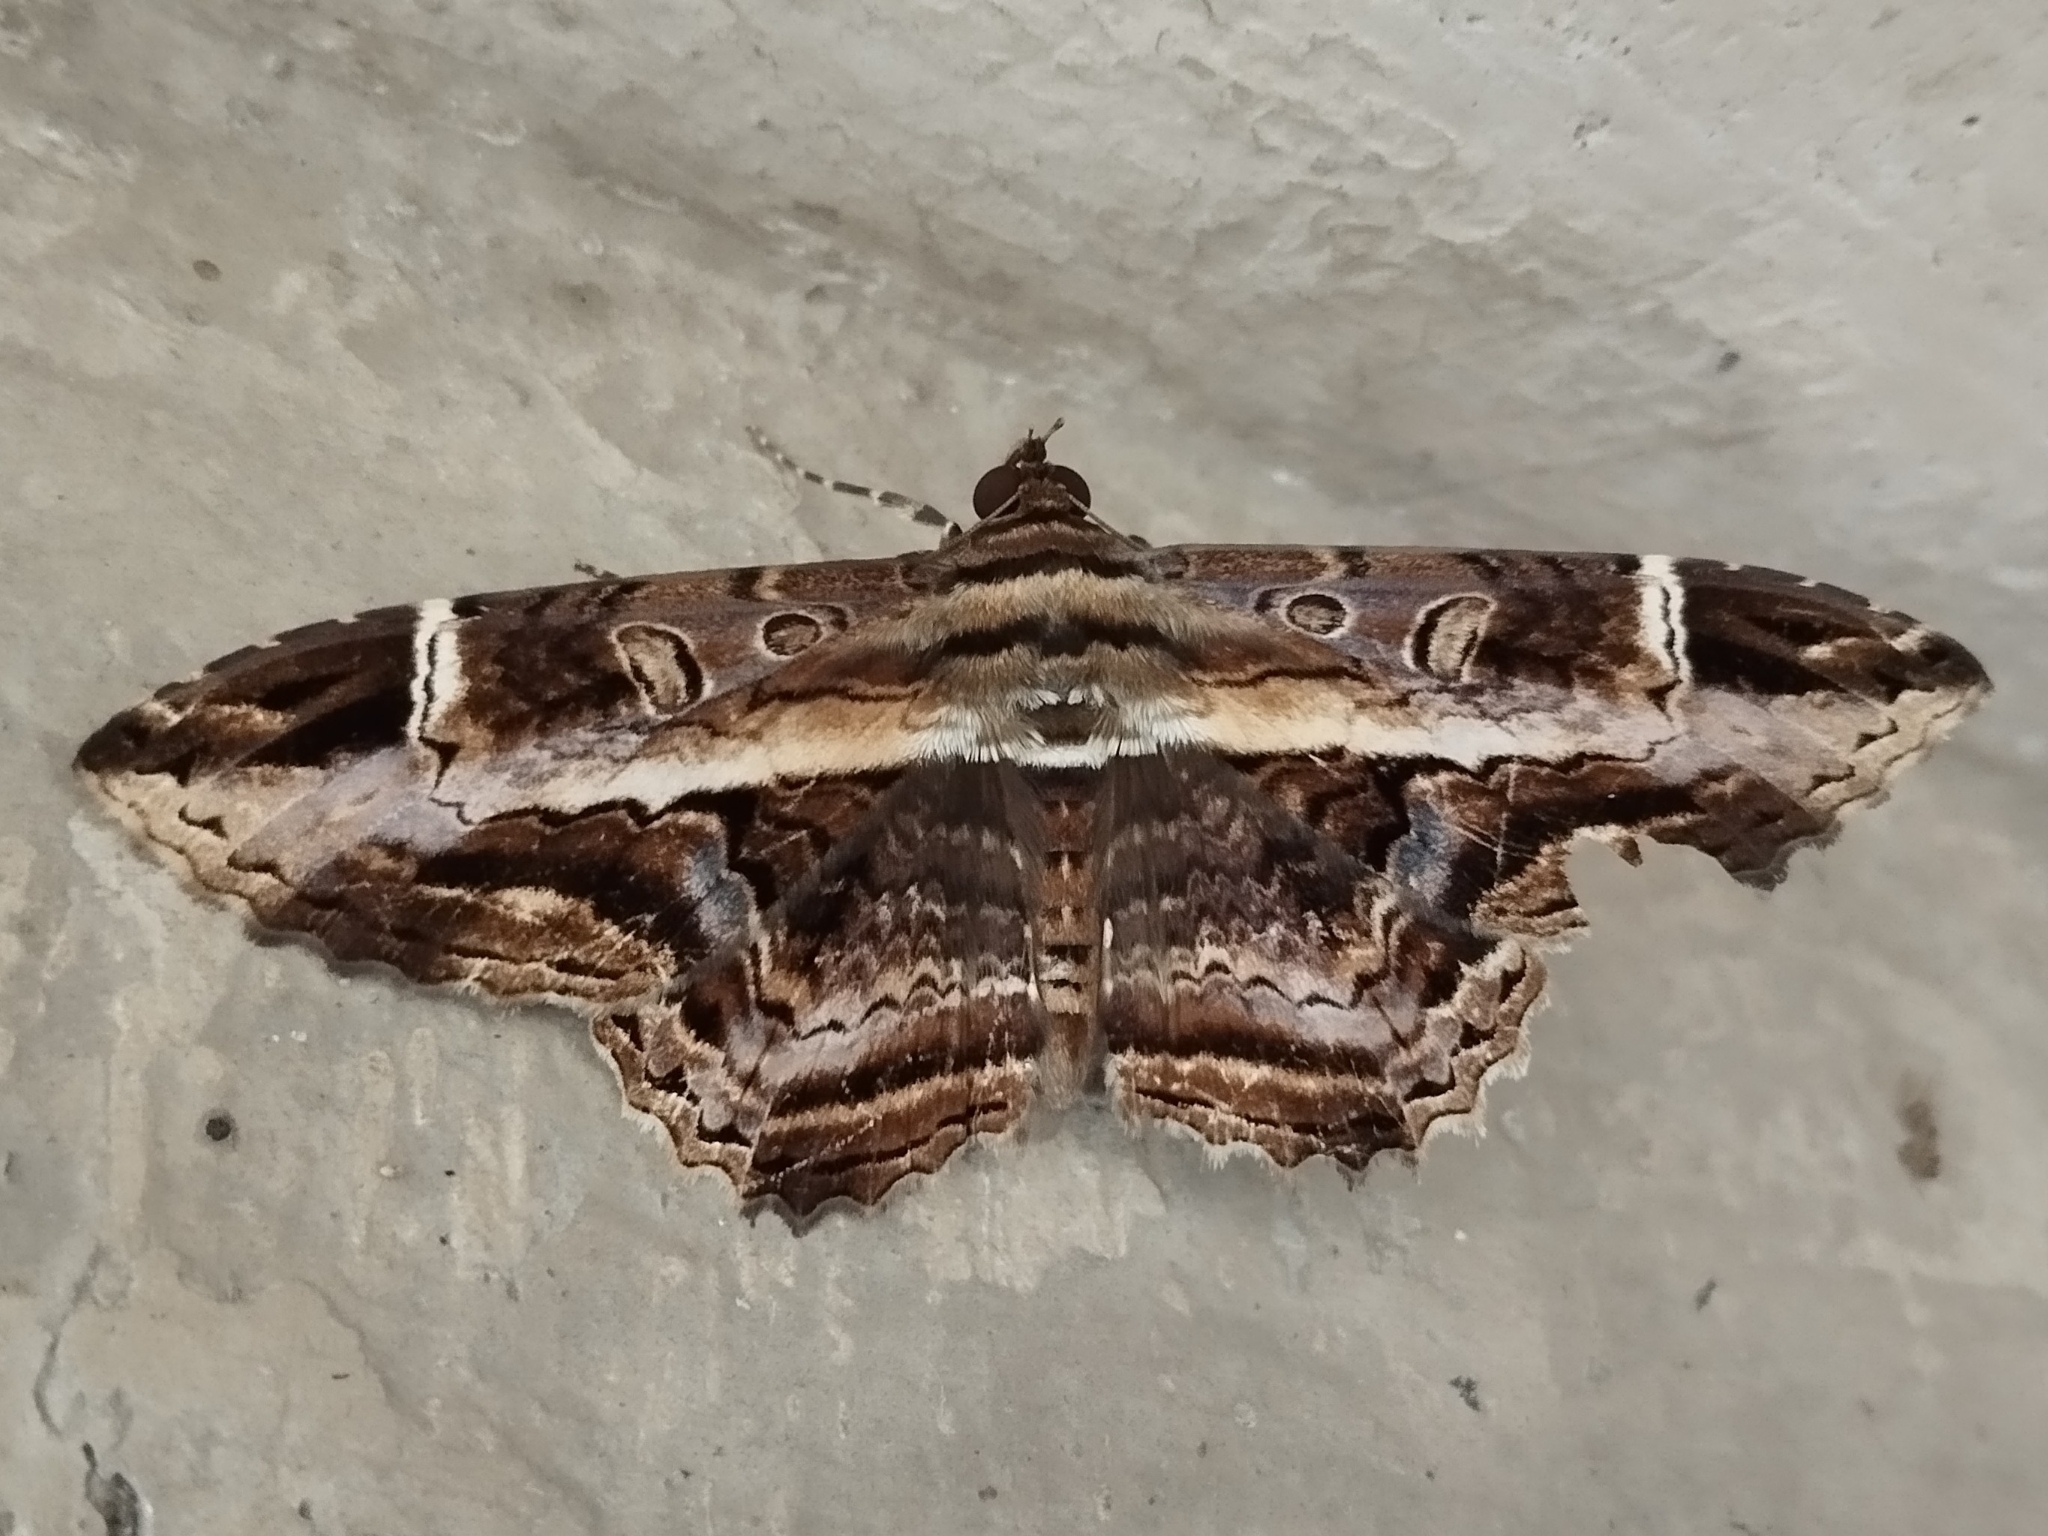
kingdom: Animalia
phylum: Arthropoda
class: Insecta
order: Lepidoptera
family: Noctuidae
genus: Ronania
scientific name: Ronania
